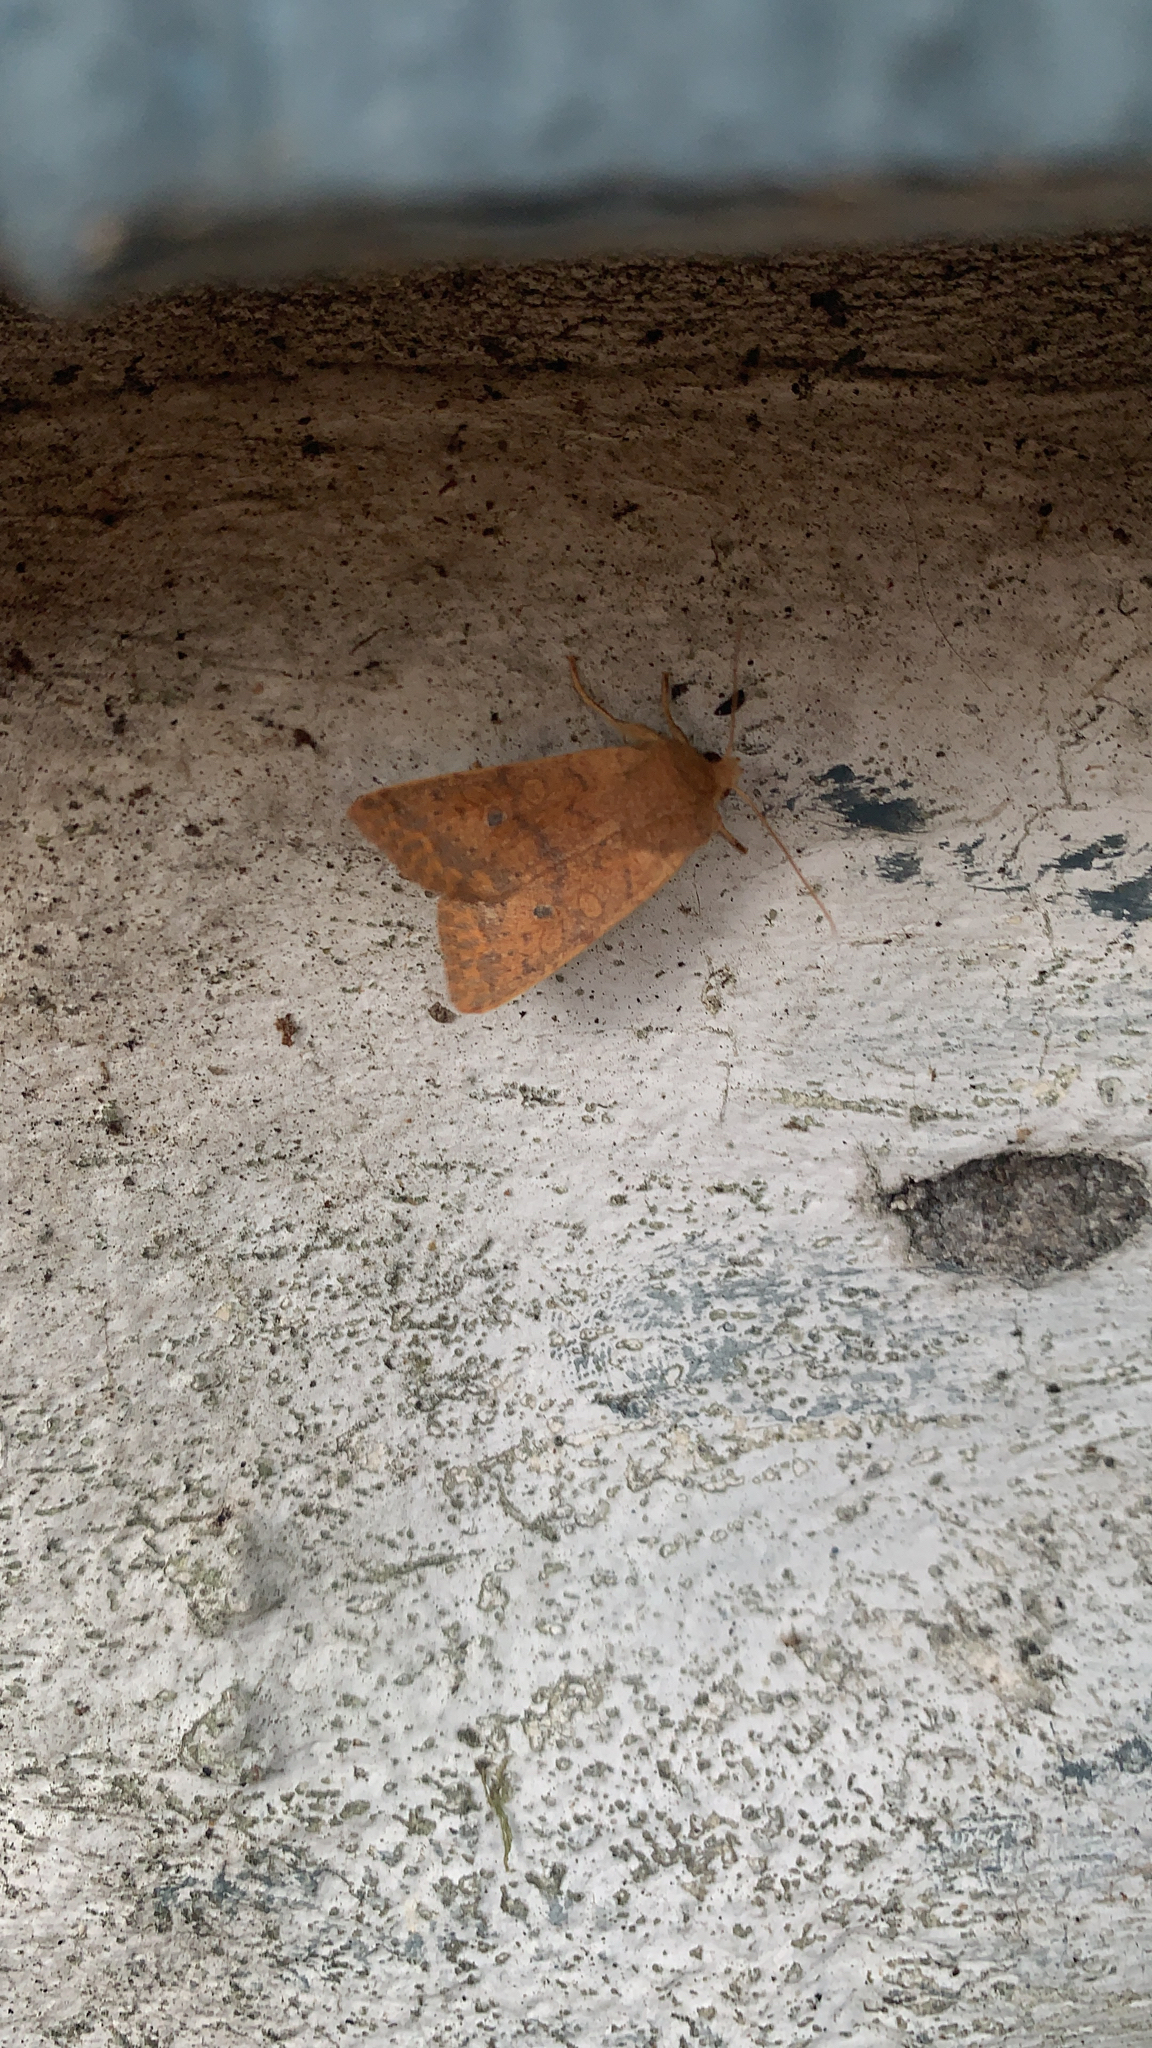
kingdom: Animalia
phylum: Arthropoda
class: Insecta
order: Lepidoptera
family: Noctuidae
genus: Agrochola
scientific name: Agrochola bicolorago
